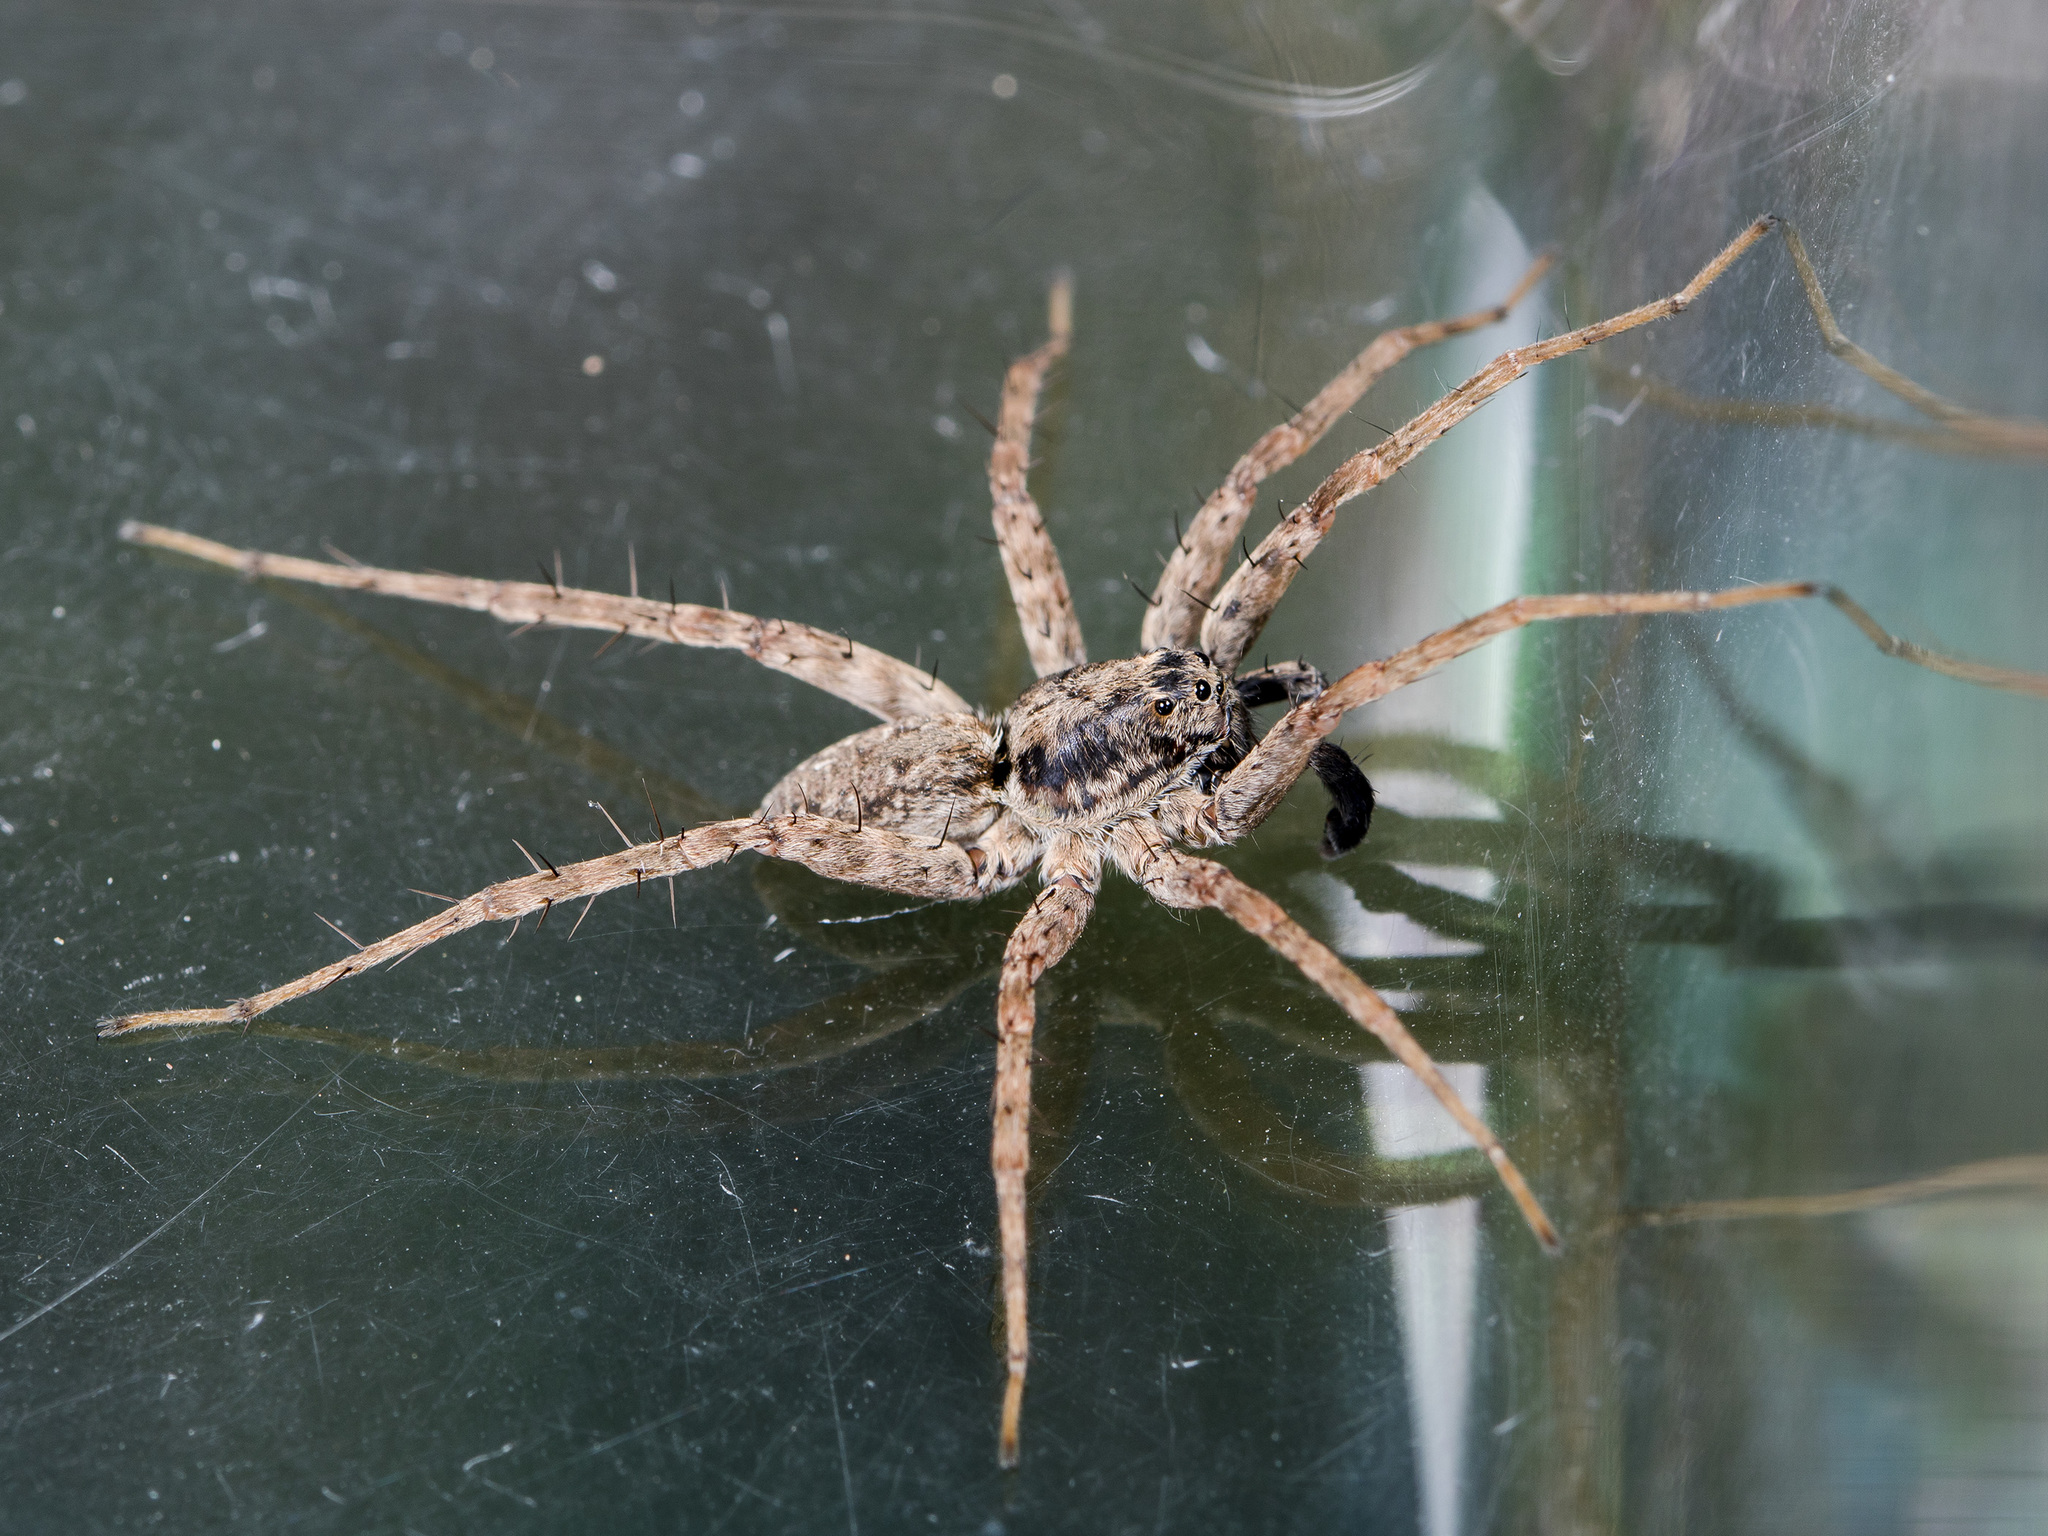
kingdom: Animalia
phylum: Arthropoda
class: Arachnida
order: Araneae
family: Lycosidae
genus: Pardosa
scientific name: Pardosa nebulosa
